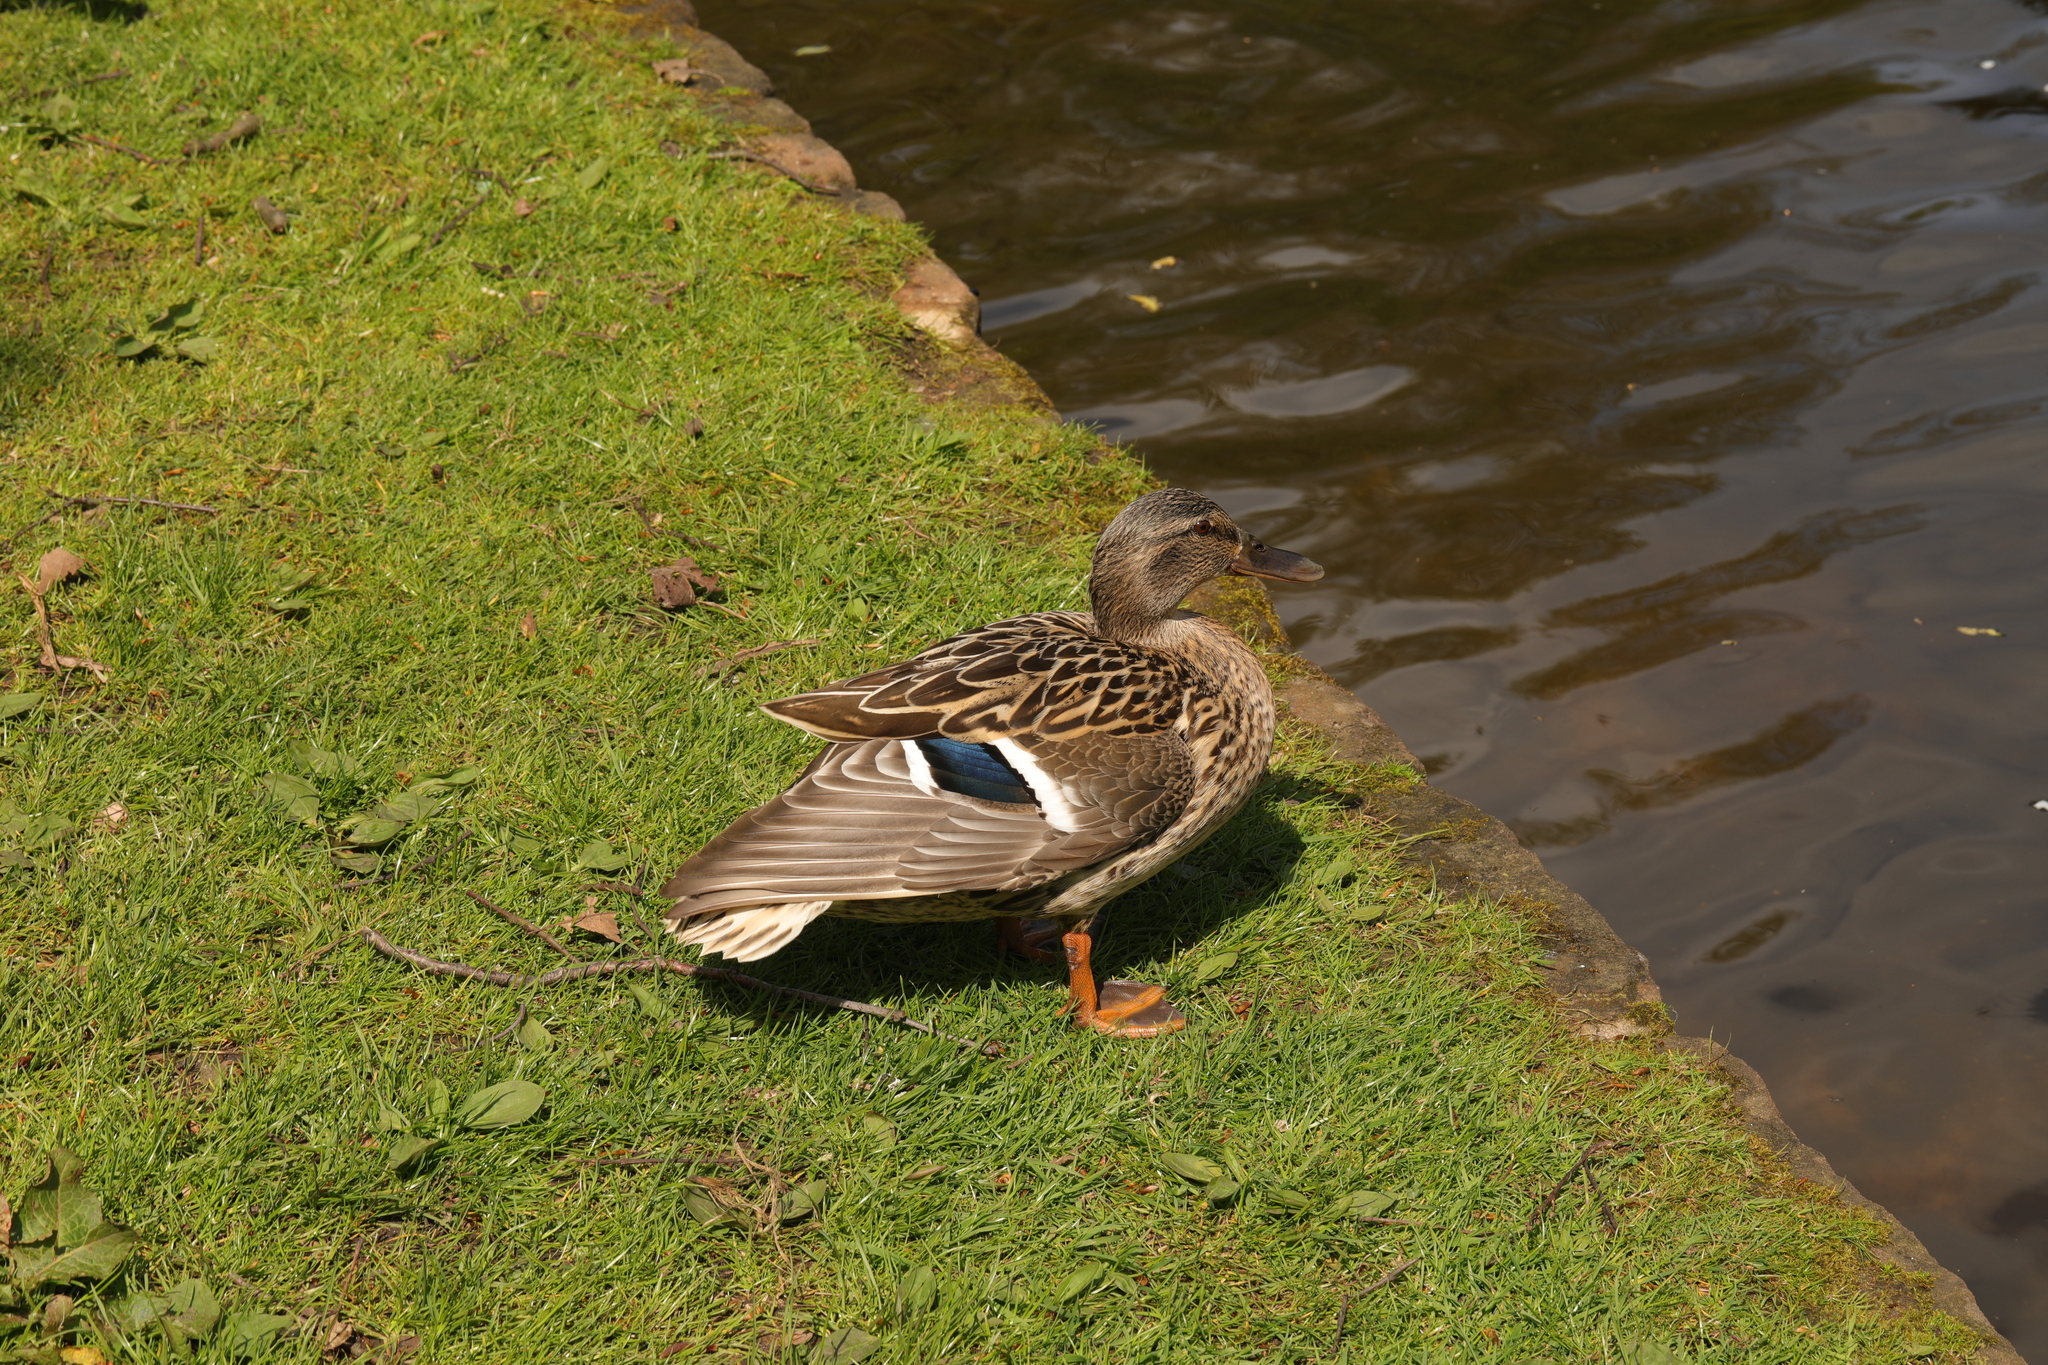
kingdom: Animalia
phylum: Chordata
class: Aves
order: Anseriformes
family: Anatidae
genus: Anas
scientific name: Anas platyrhynchos
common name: Mallard
